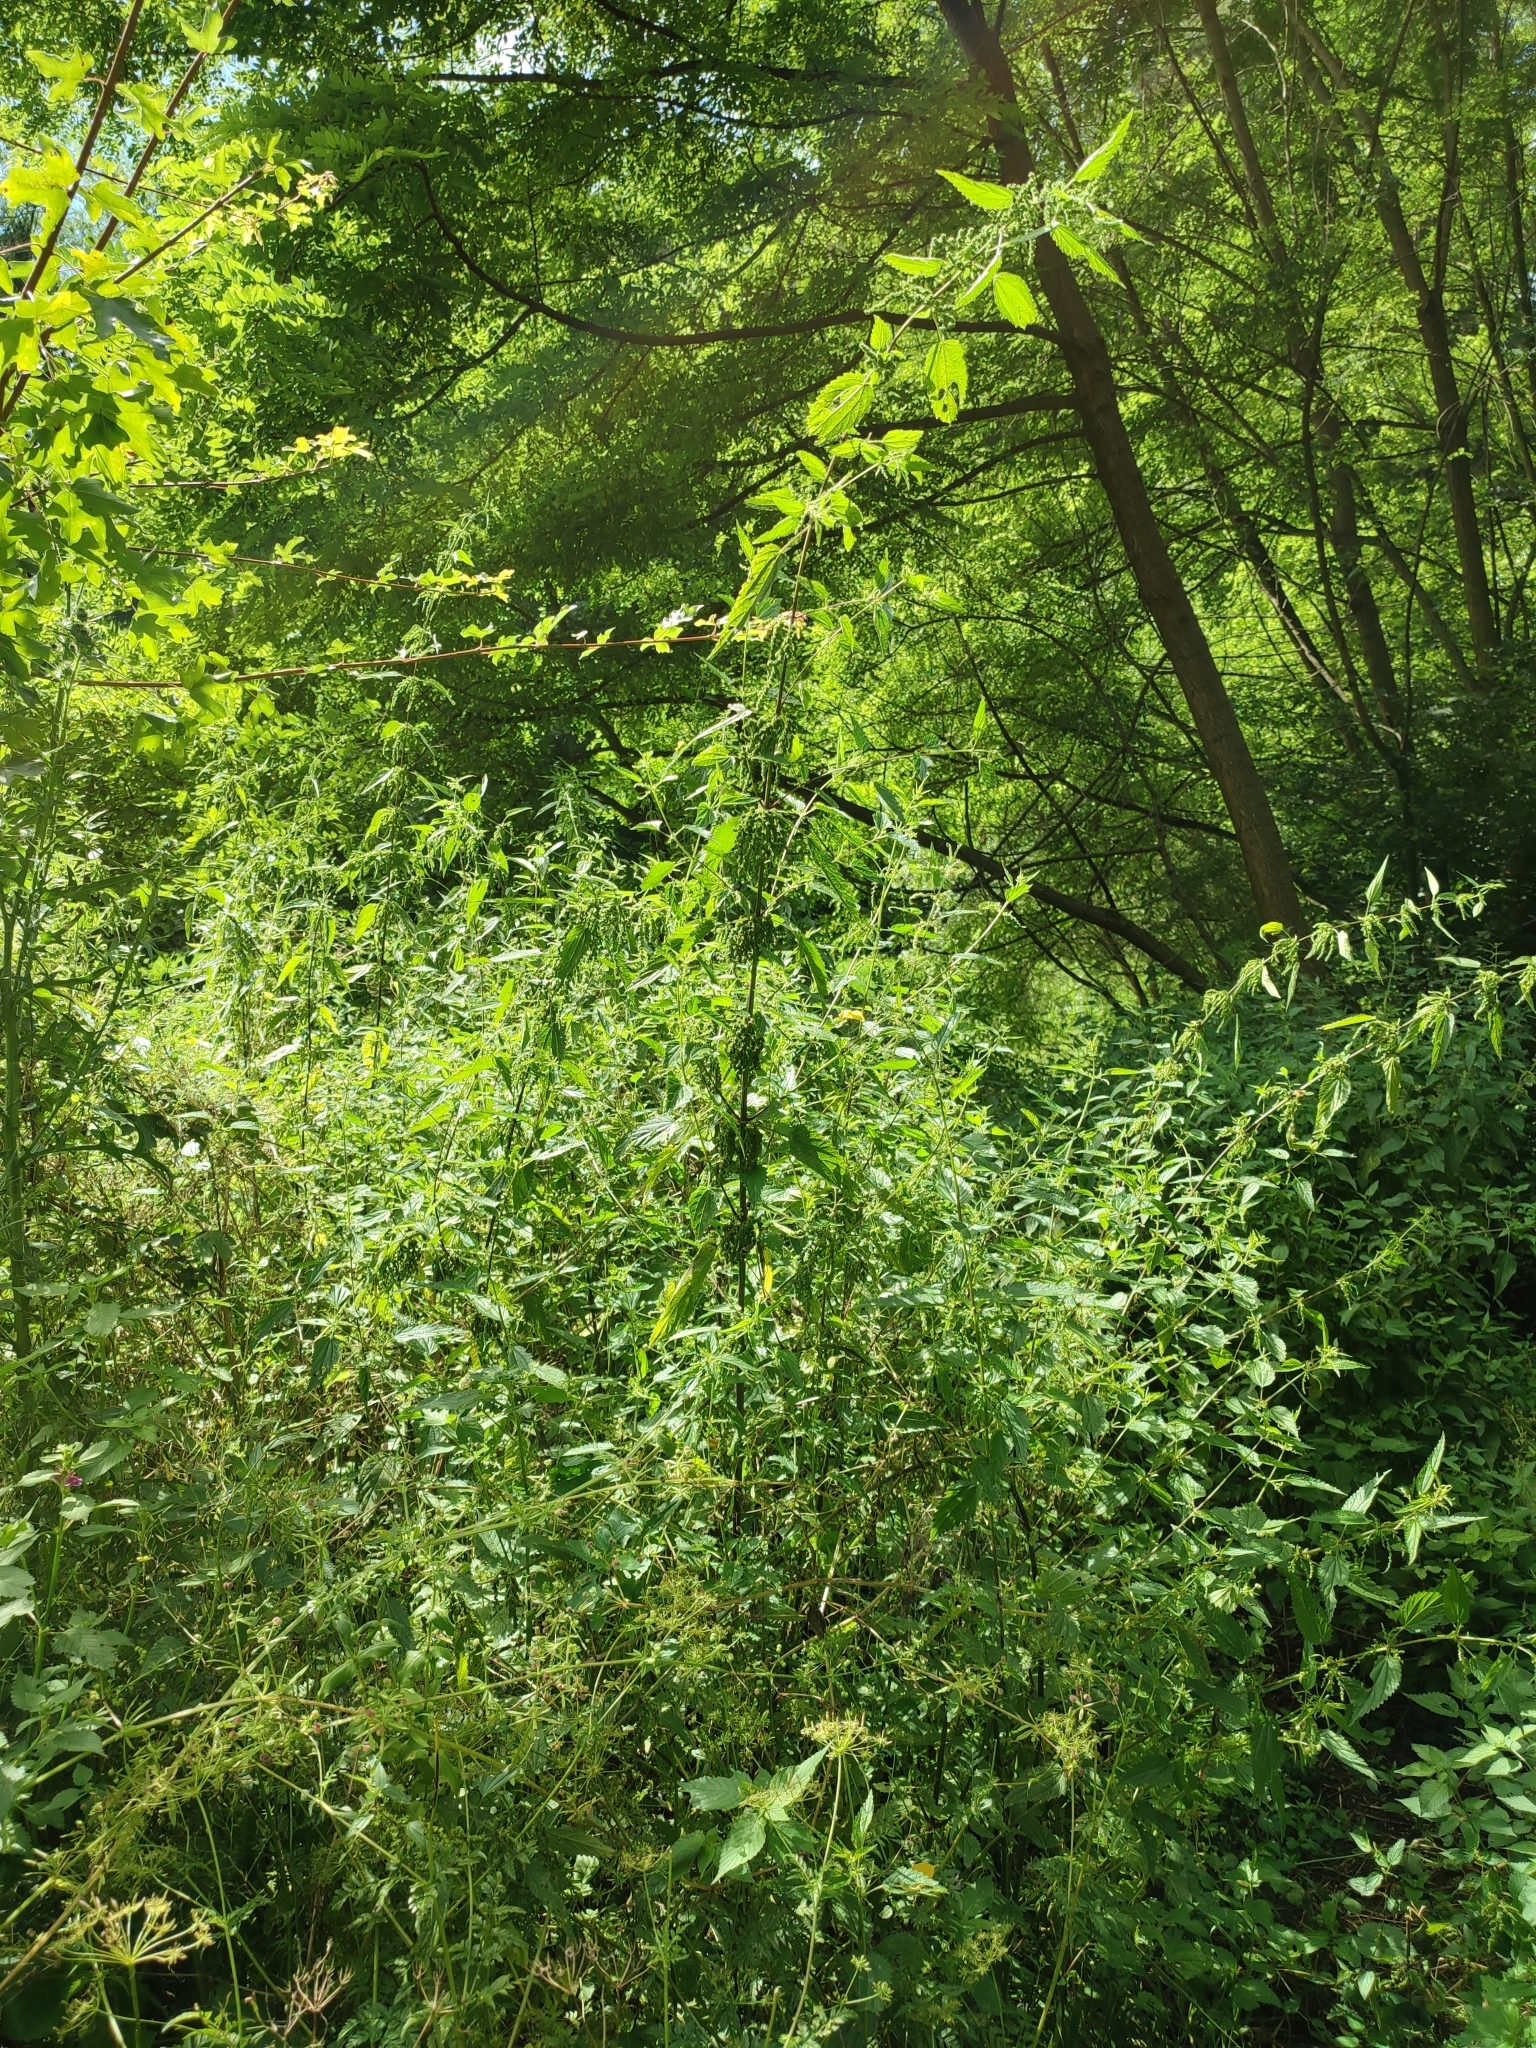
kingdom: Plantae
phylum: Tracheophyta
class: Magnoliopsida
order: Rosales
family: Urticaceae
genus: Urtica
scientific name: Urtica dioica
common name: Common nettle
